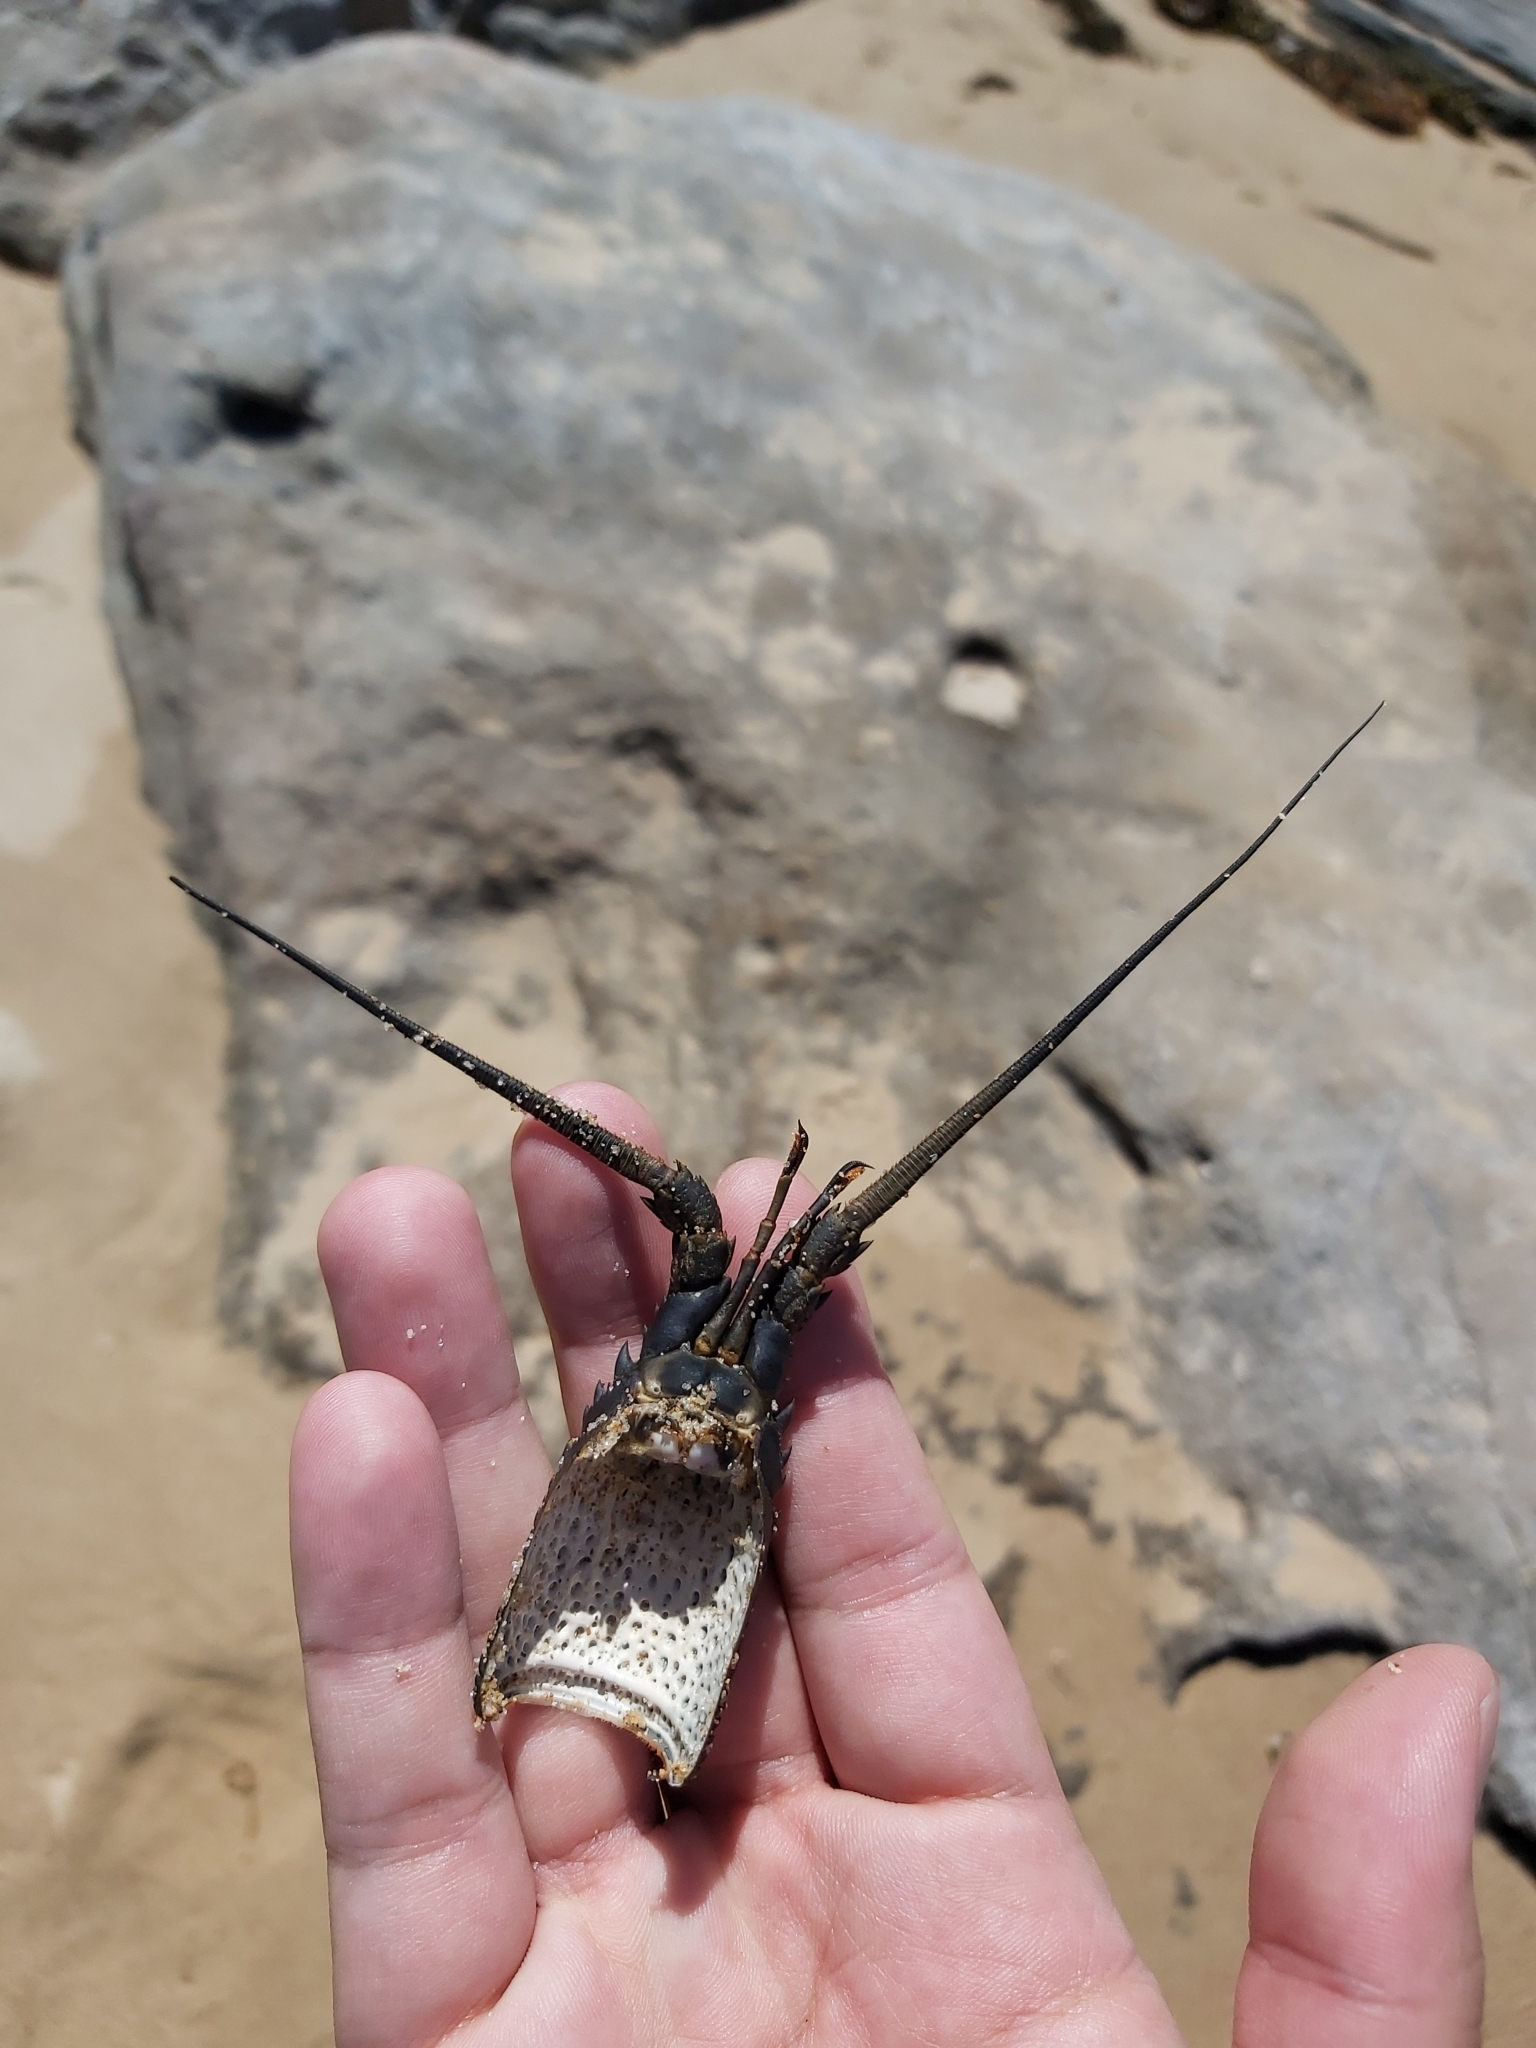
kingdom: Animalia
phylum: Arthropoda
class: Malacostraca
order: Decapoda
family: Palinuridae
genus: Sagmariasus
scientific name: Sagmariasus verreauxi
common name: Green rock lobster
